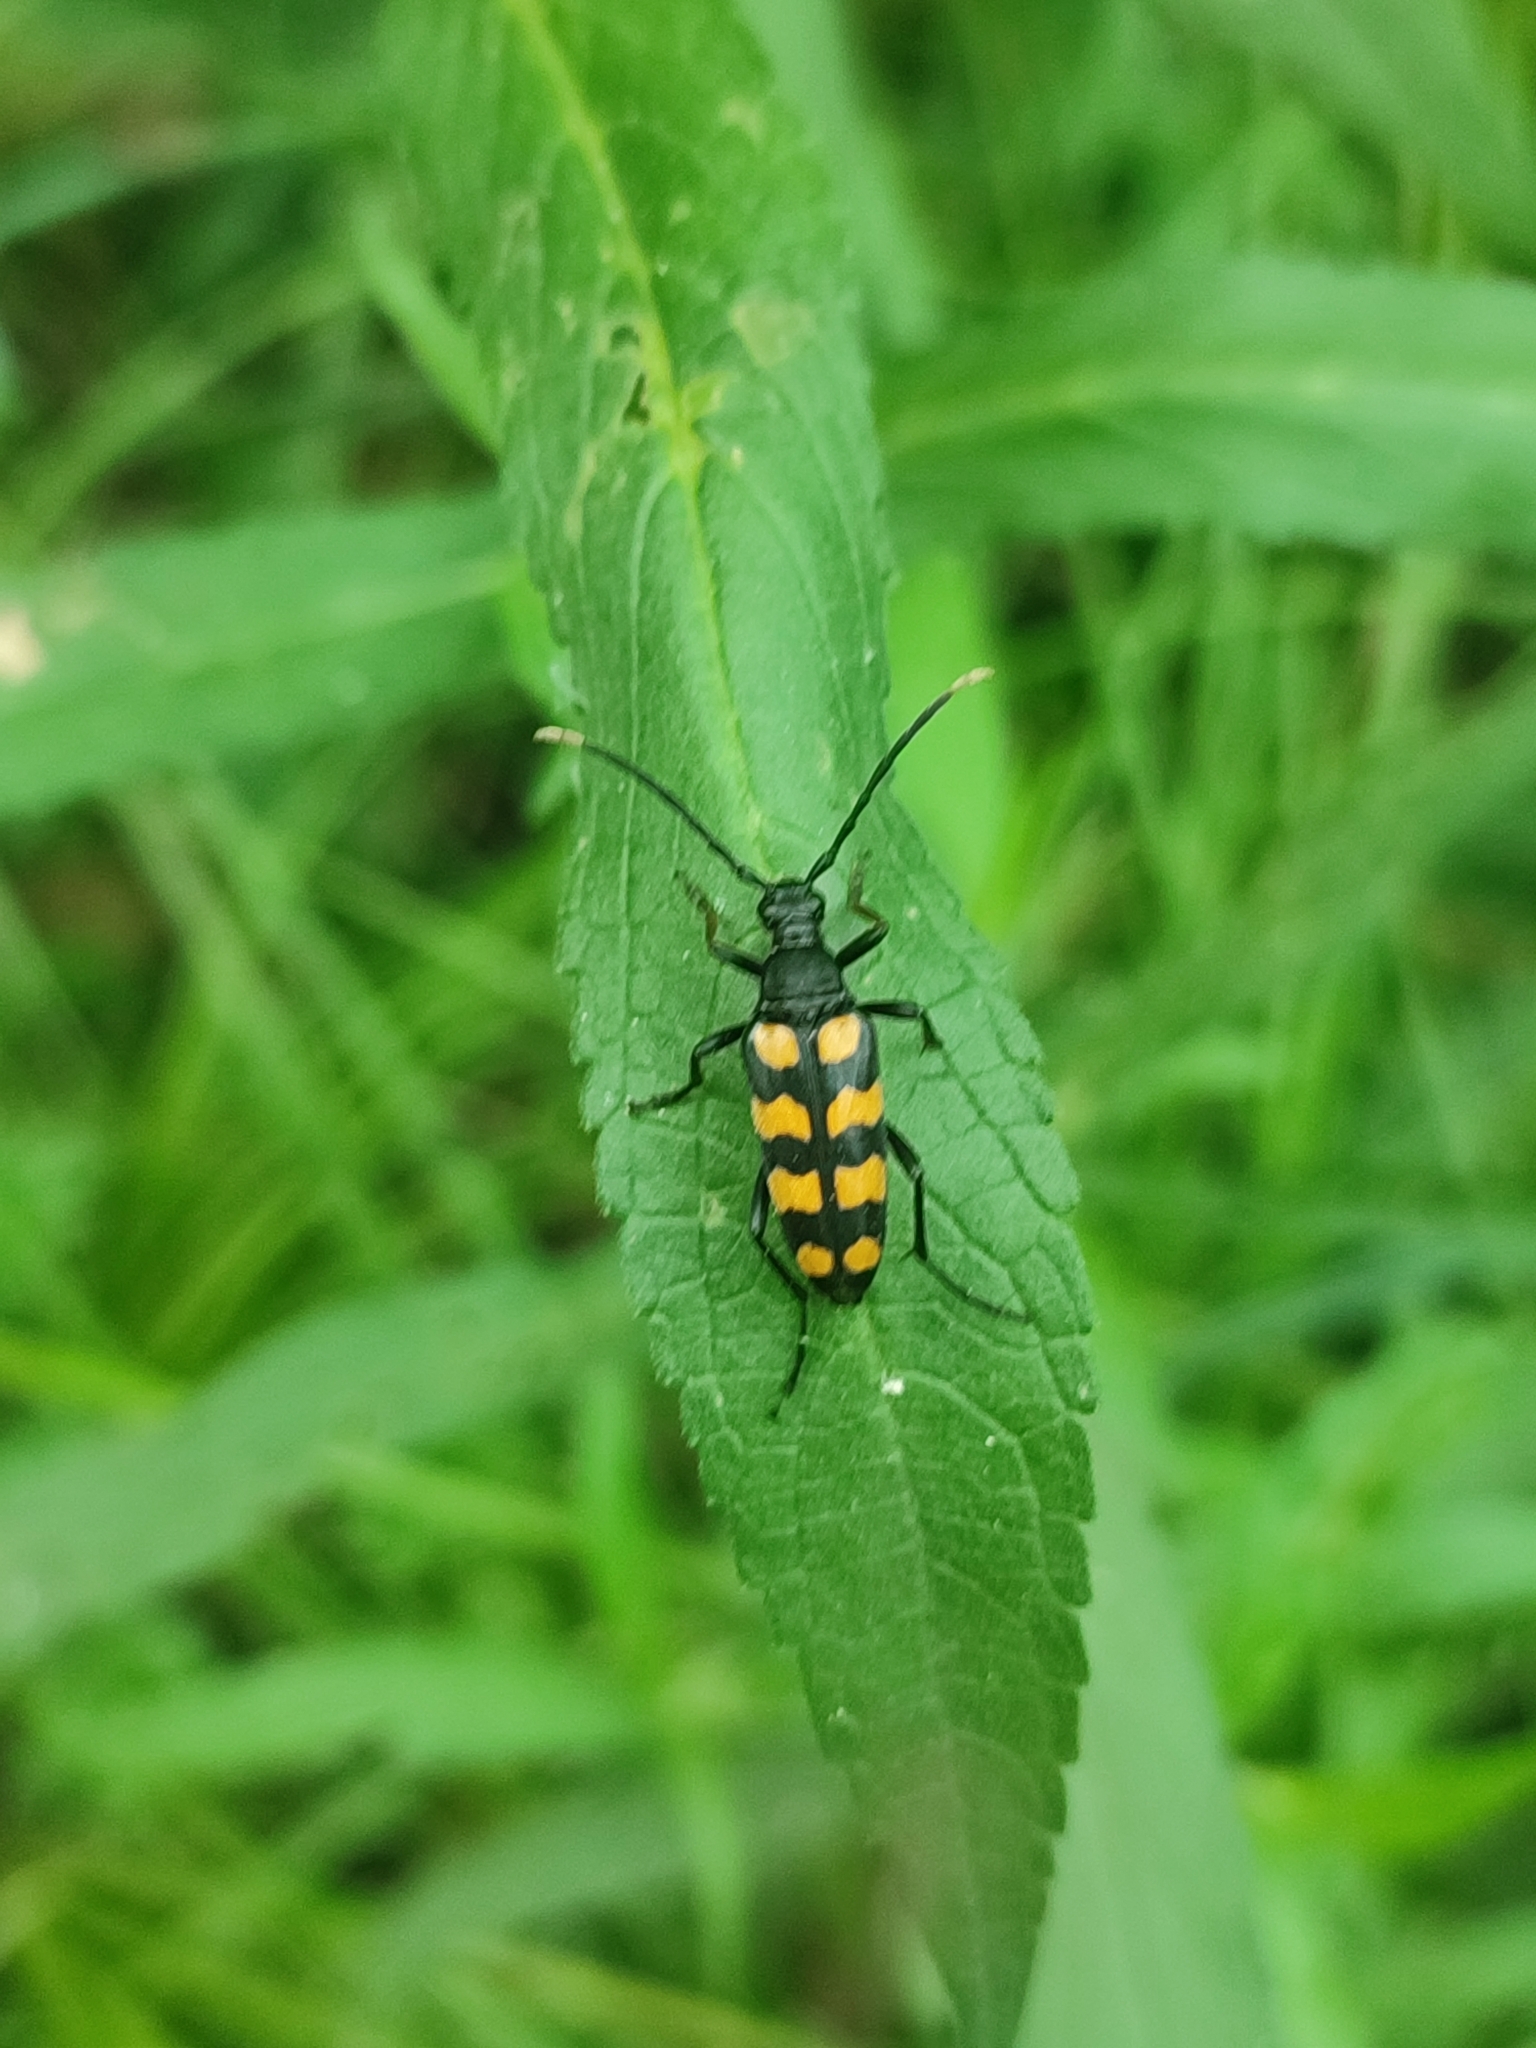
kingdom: Animalia
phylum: Arthropoda
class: Insecta
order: Coleoptera
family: Cerambycidae
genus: Leptura
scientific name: Leptura quadrifasciata
